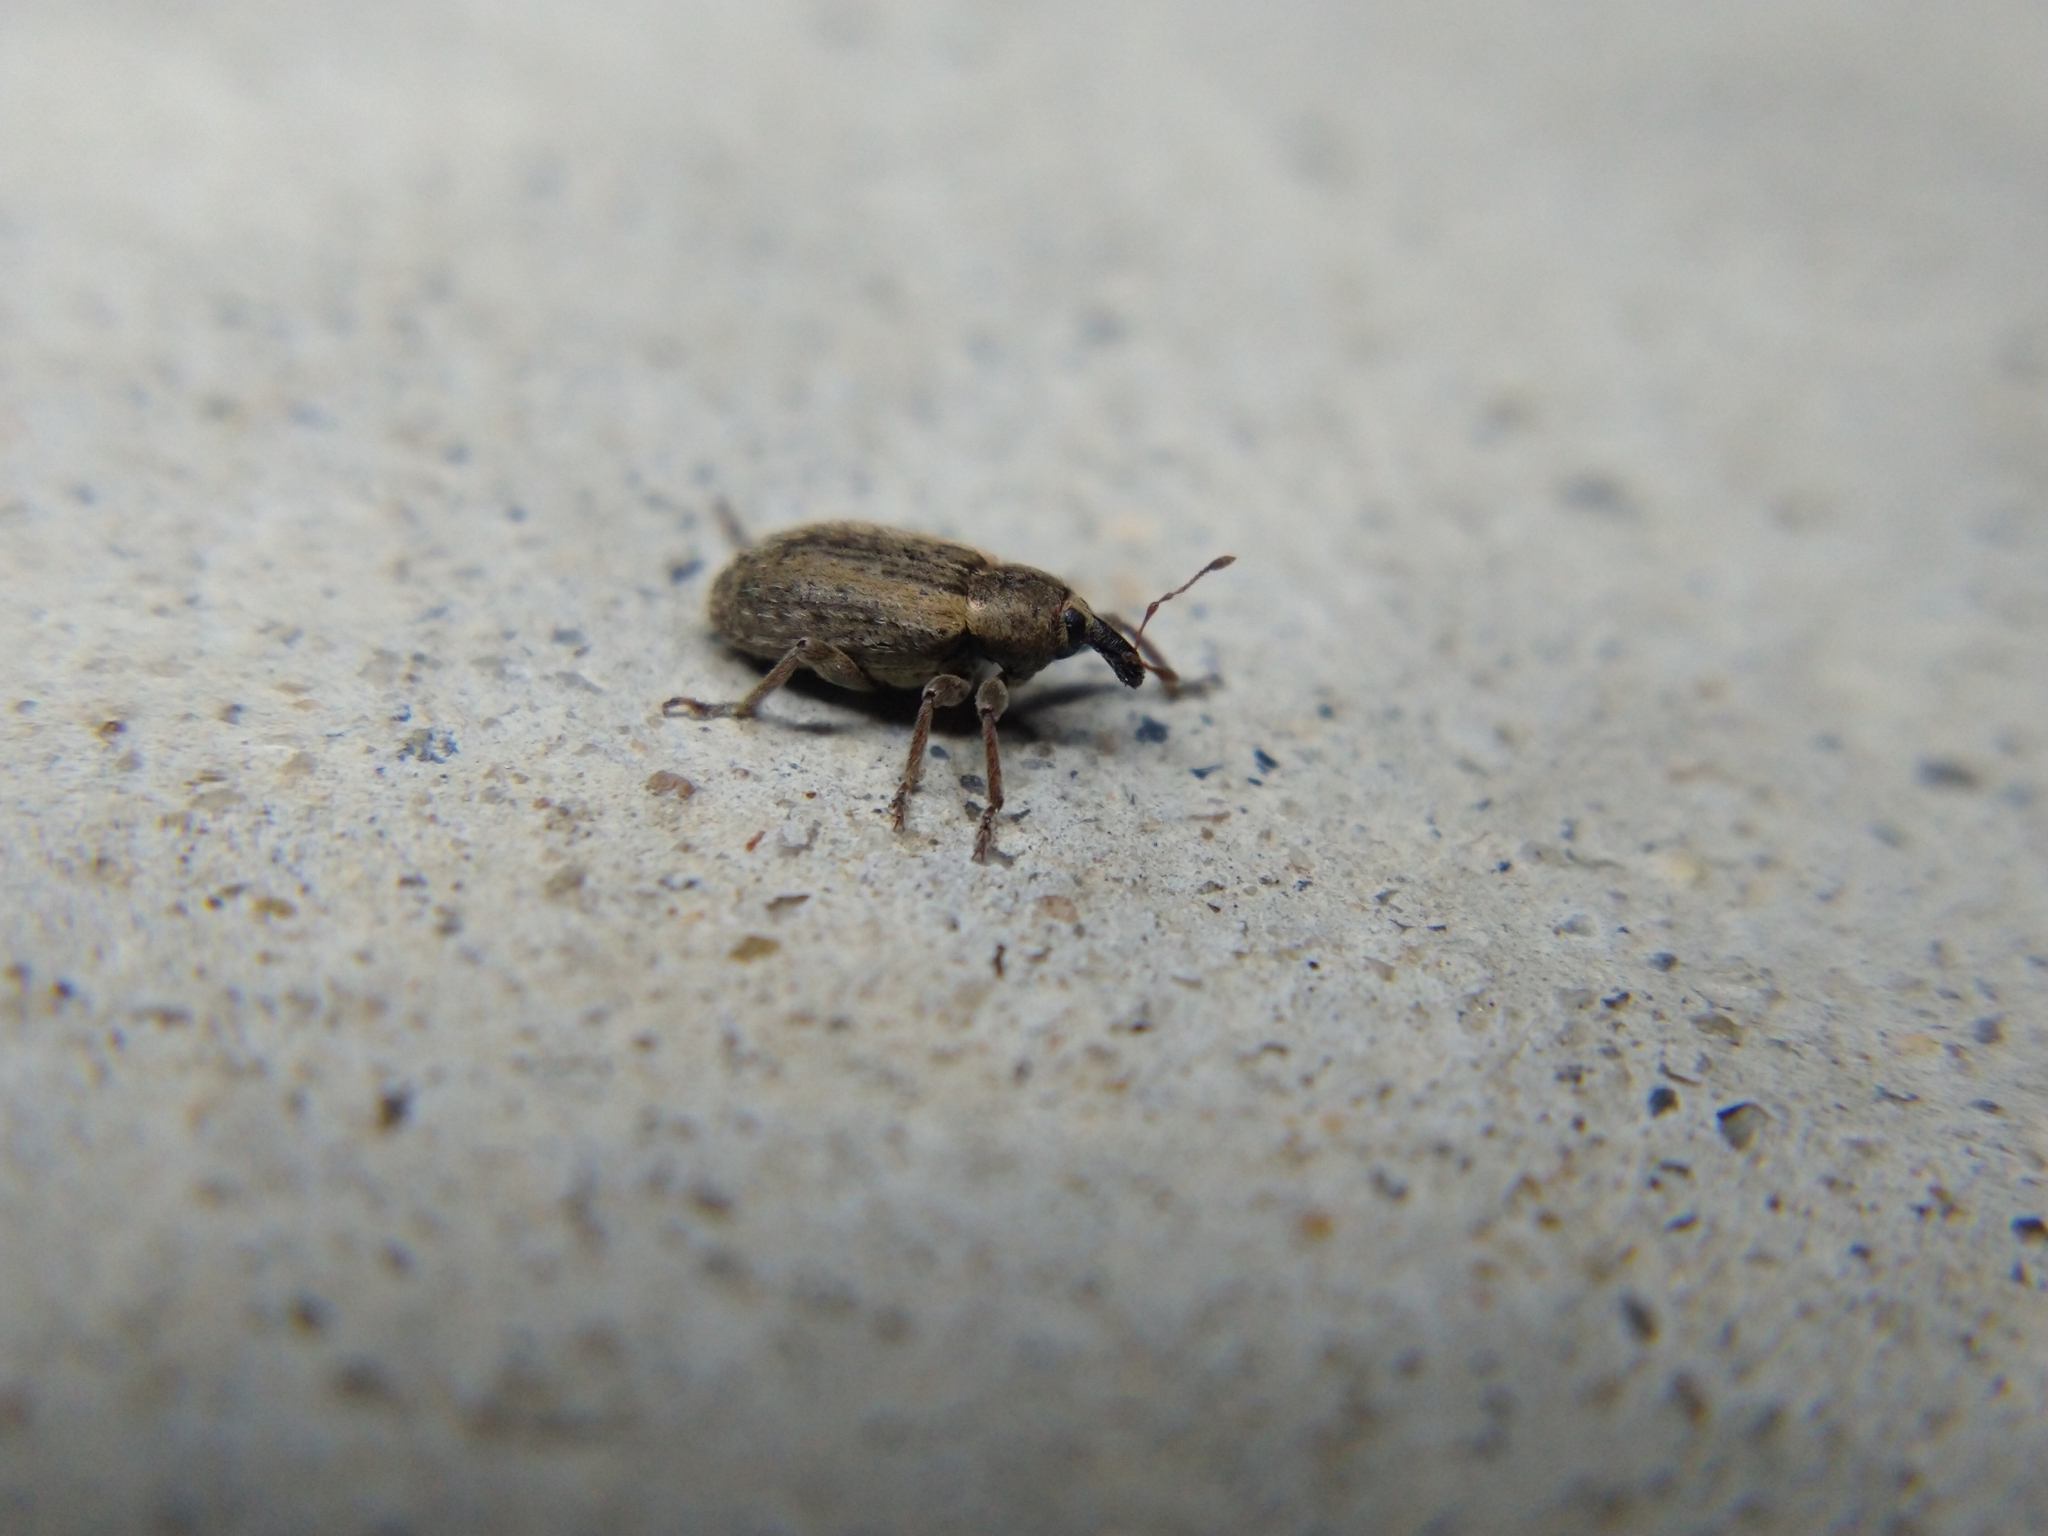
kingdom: Animalia
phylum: Arthropoda
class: Insecta
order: Coleoptera
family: Curculionidae
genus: Hypera
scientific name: Hypera postica
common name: Weevil
